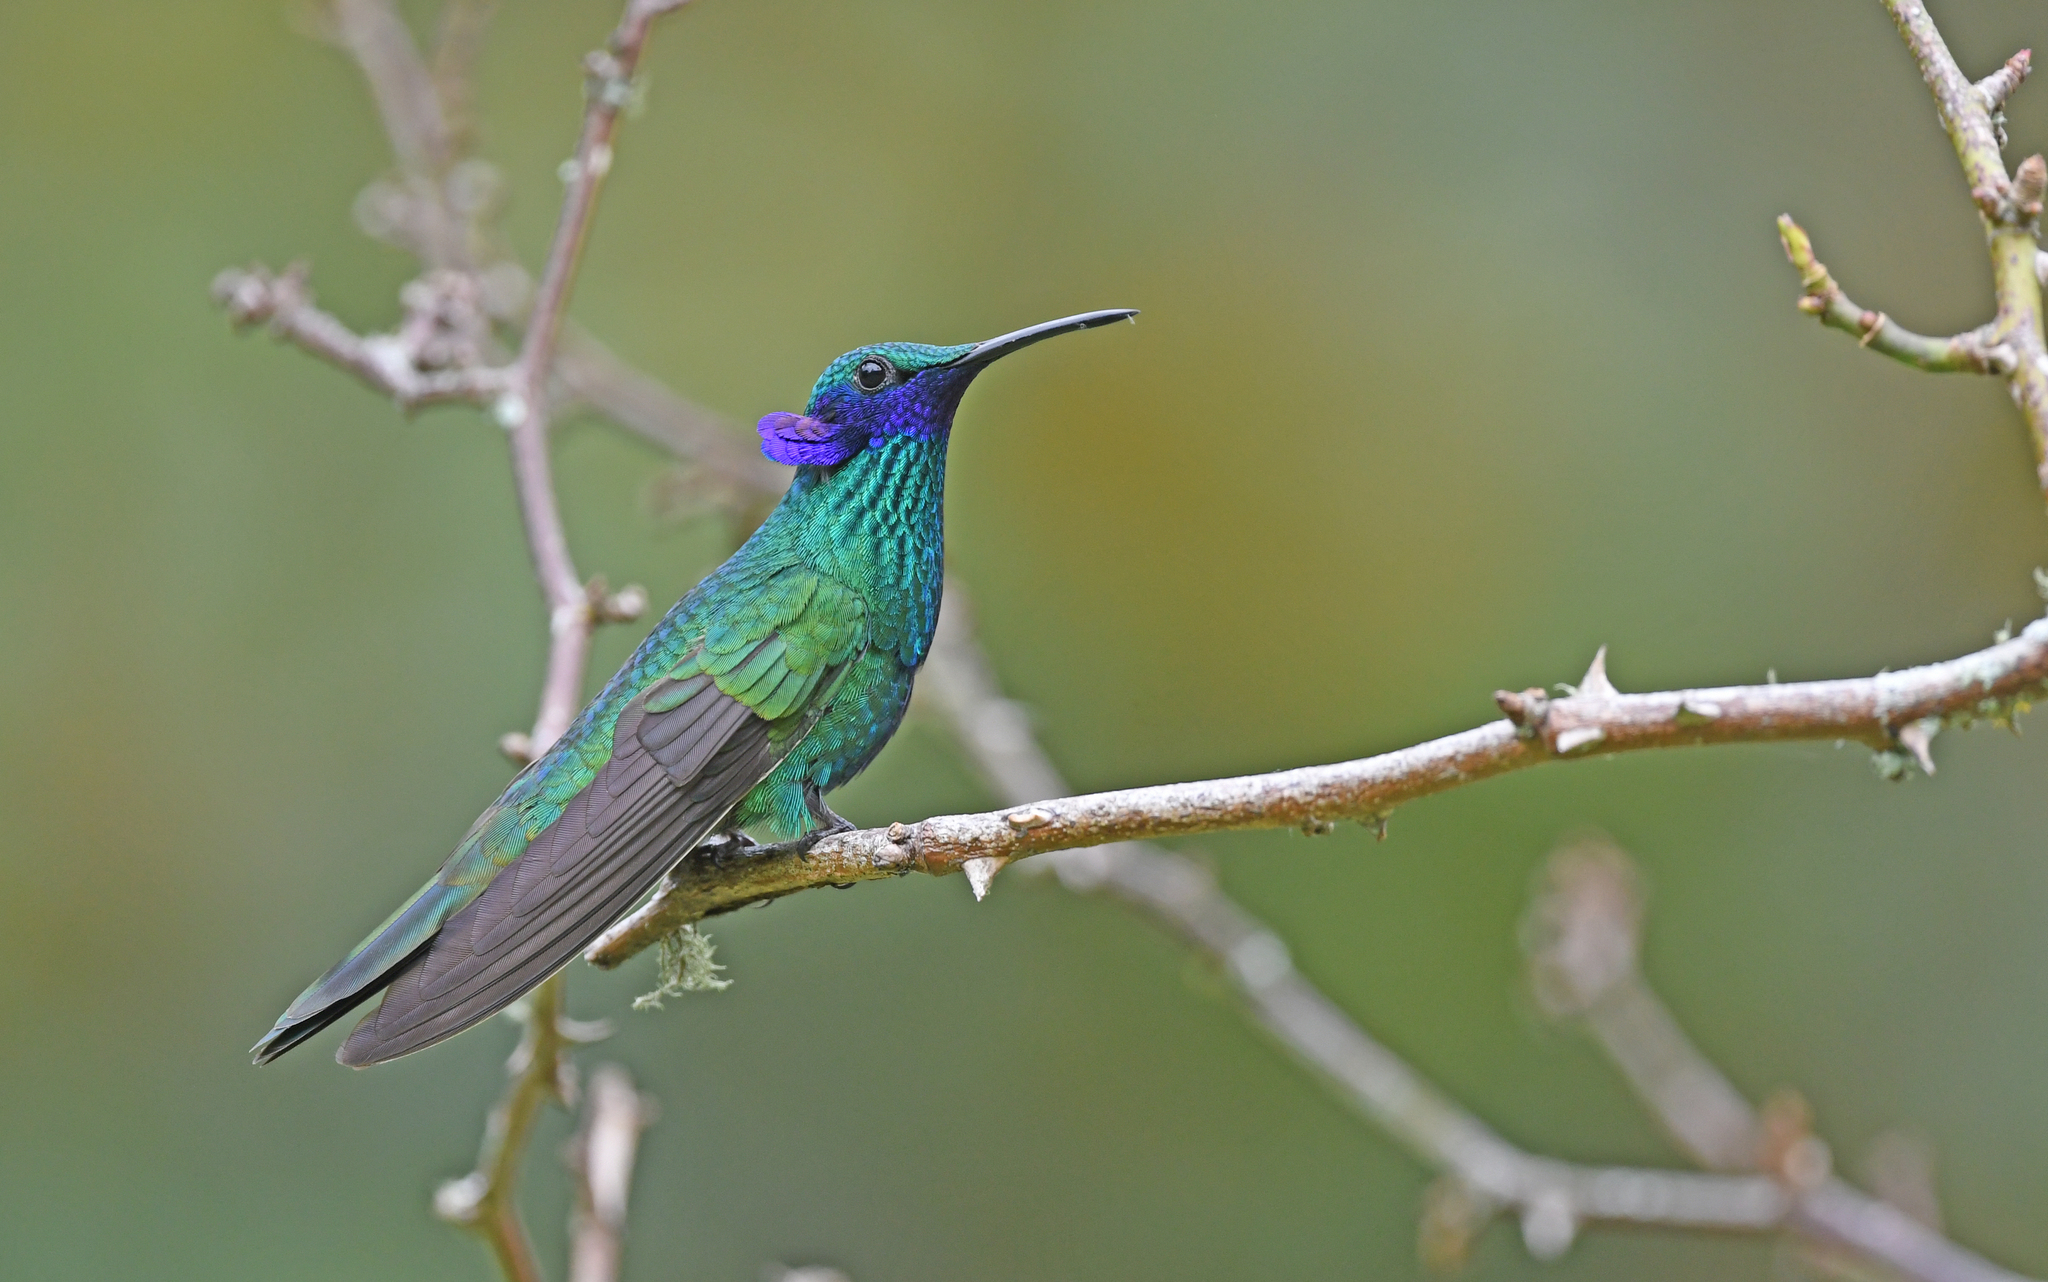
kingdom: Animalia
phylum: Chordata
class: Aves
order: Apodiformes
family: Trochilidae
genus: Colibri
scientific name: Colibri coruscans
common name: Sparkling violetear
